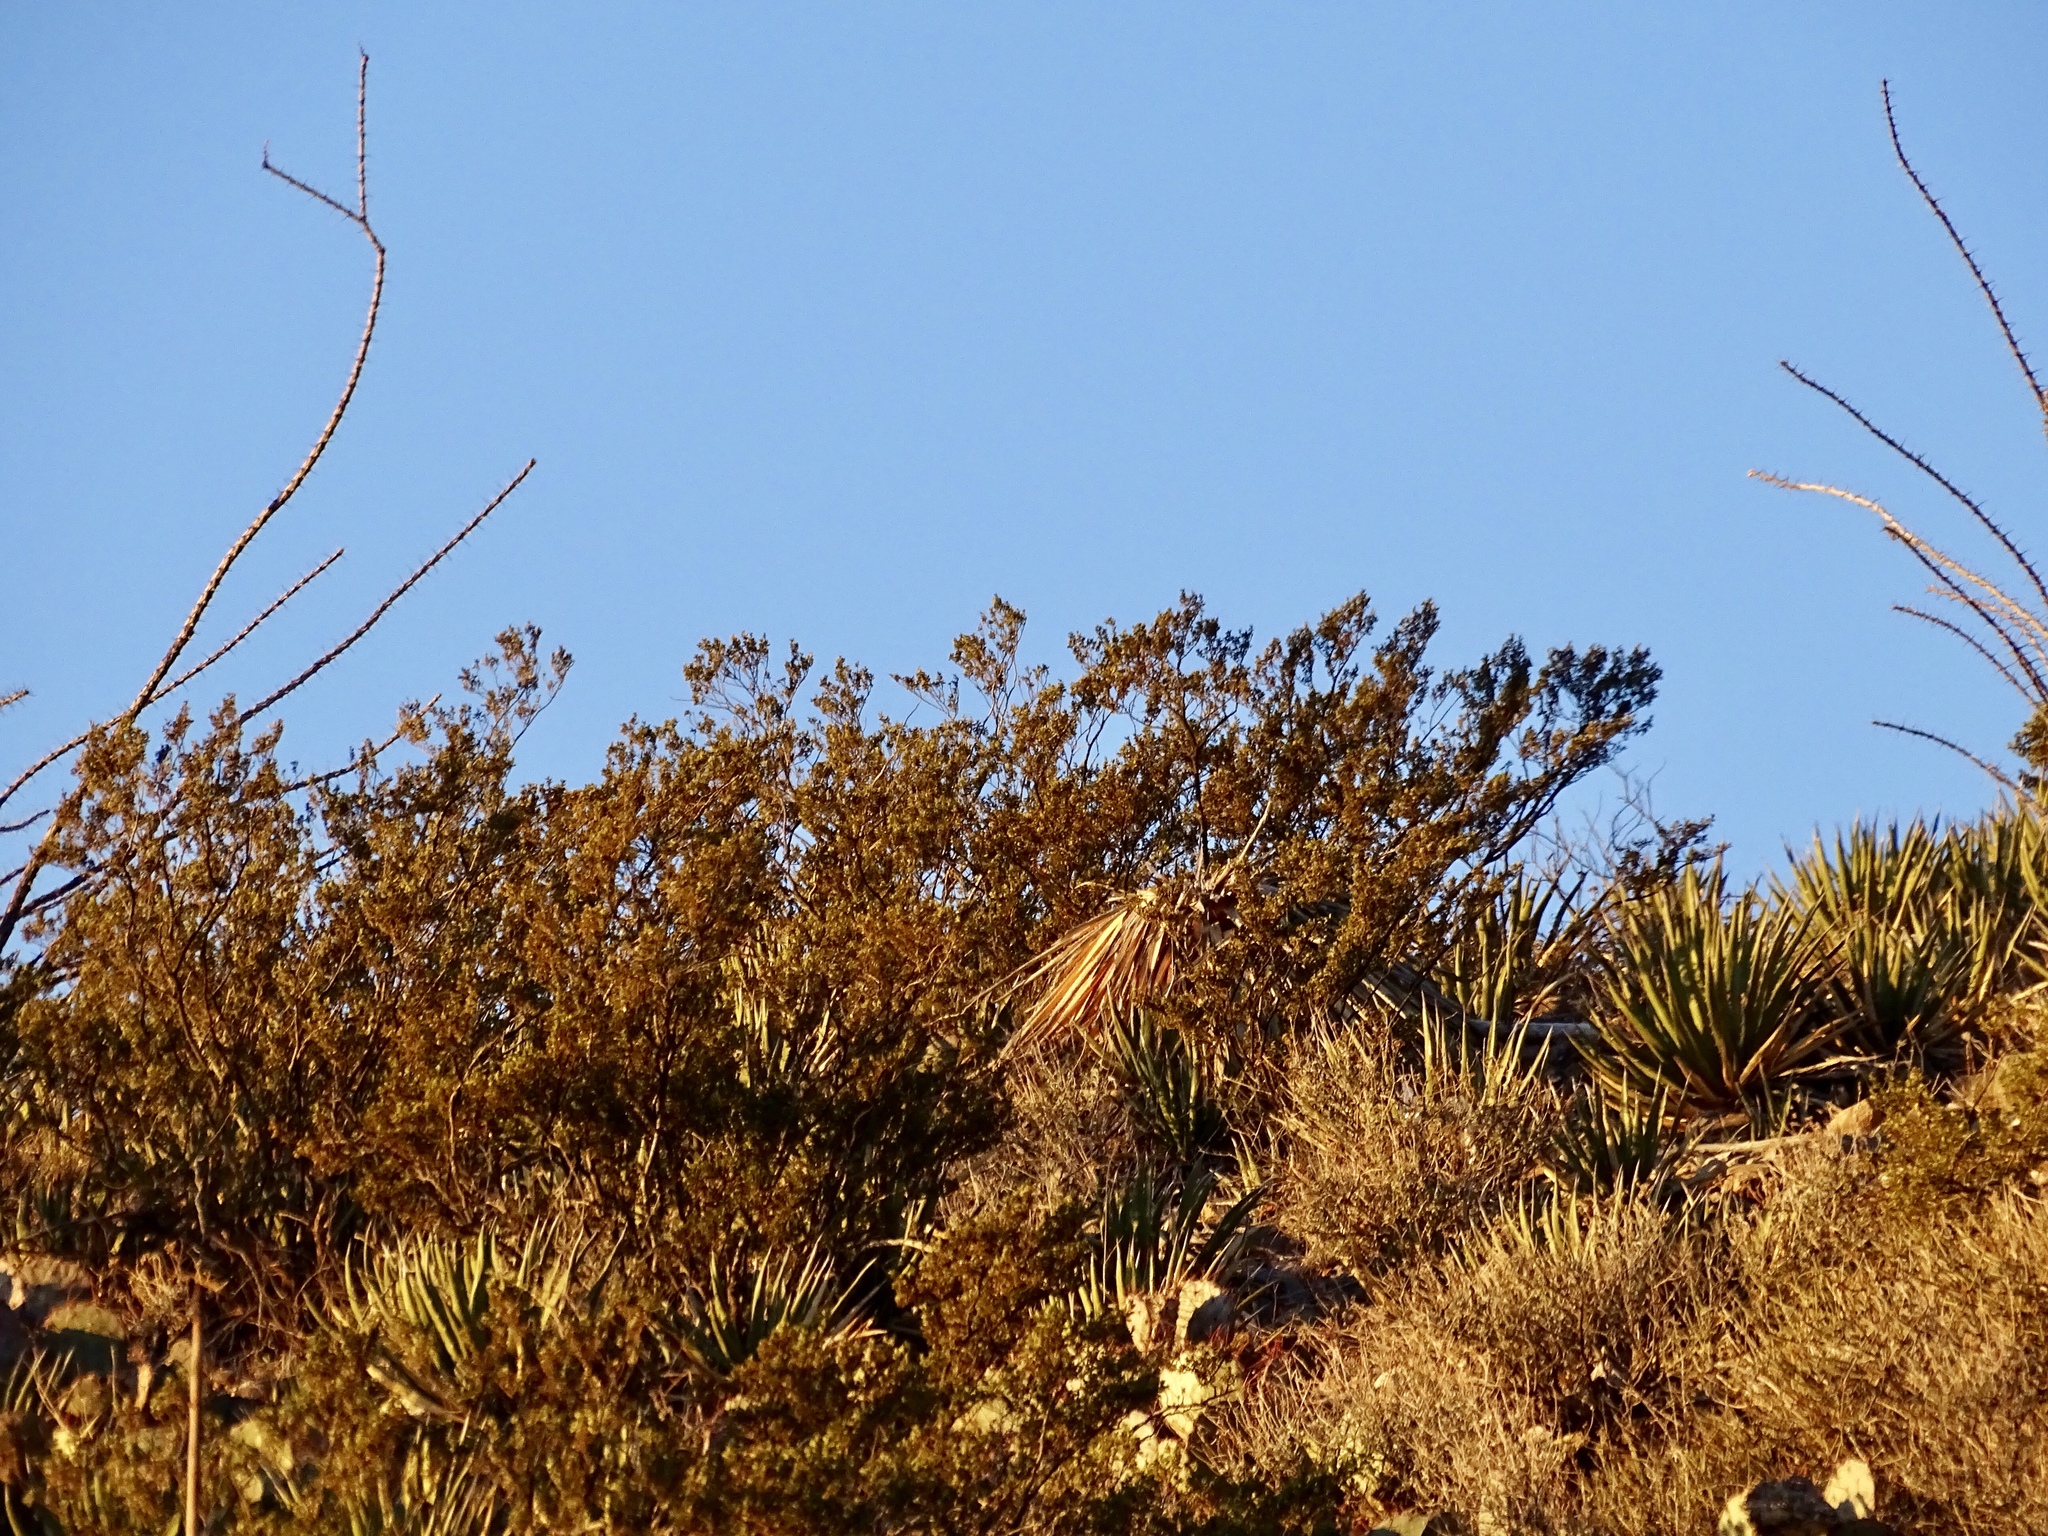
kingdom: Plantae
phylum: Tracheophyta
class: Magnoliopsida
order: Zygophyllales
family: Zygophyllaceae
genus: Larrea
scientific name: Larrea tridentata
